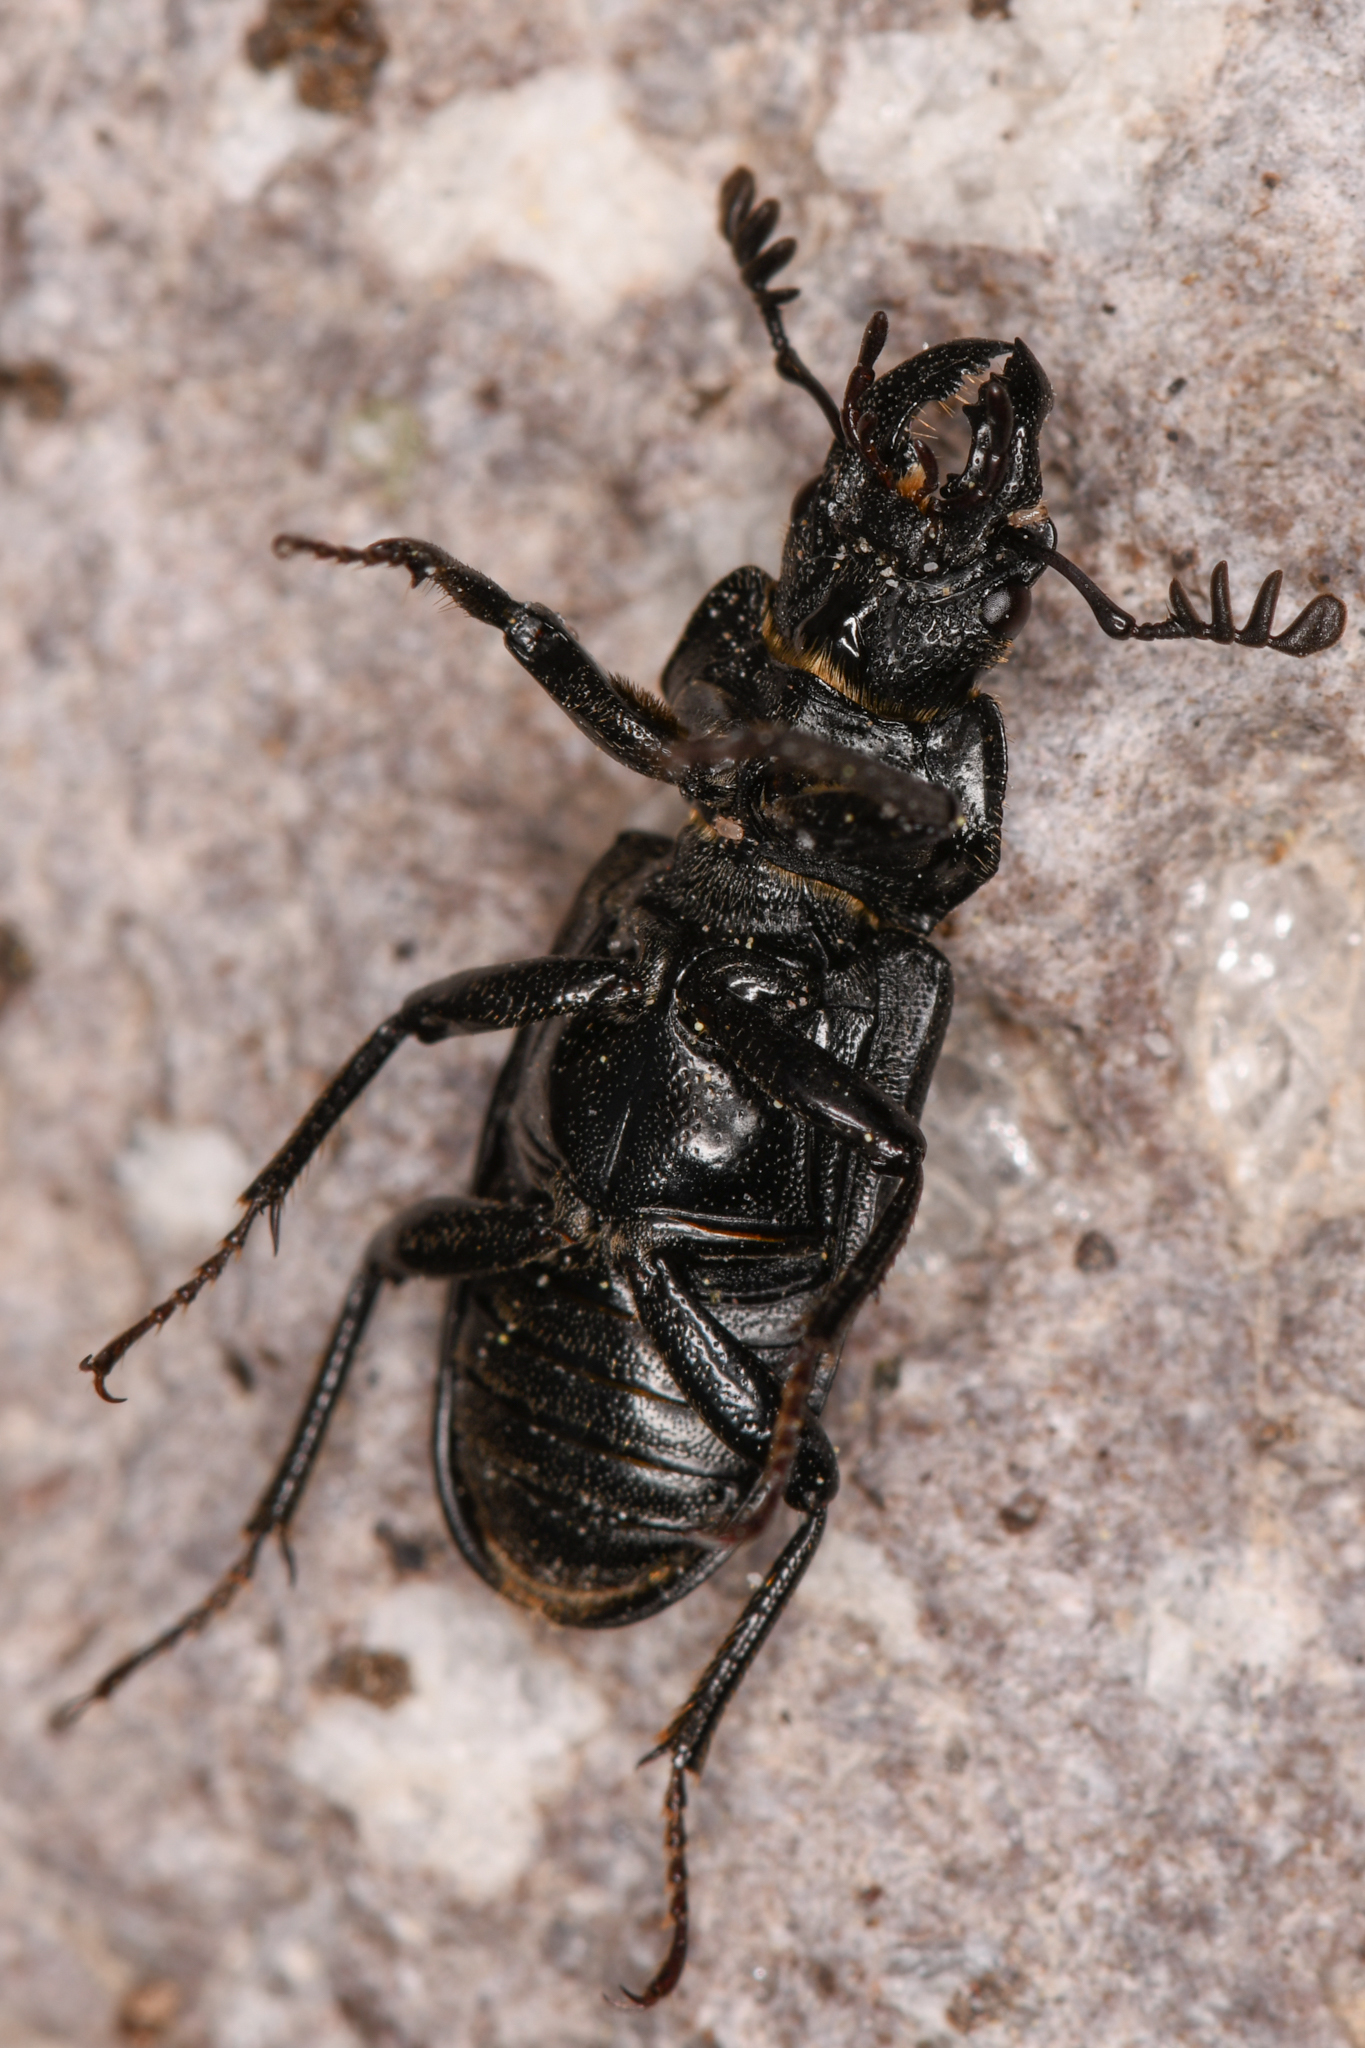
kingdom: Animalia
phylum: Arthropoda
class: Insecta
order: Coleoptera
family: Lucanidae
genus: Platycerus
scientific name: Platycerus marginalis
